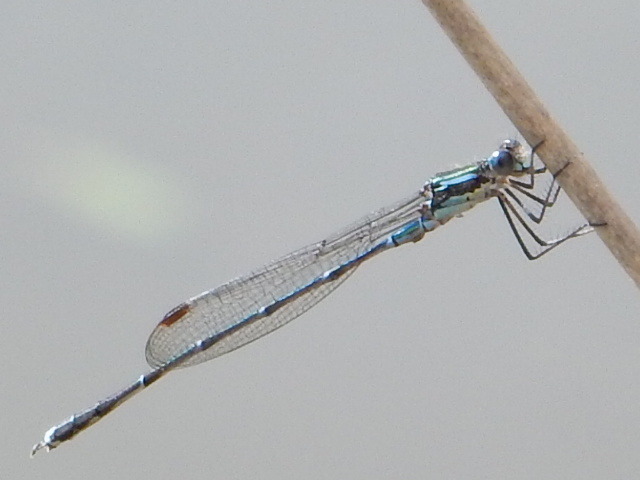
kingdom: Animalia
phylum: Arthropoda
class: Insecta
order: Odonata
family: Lestidae
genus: Austrolestes
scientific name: Austrolestes colensonis
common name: Blue damselfly
